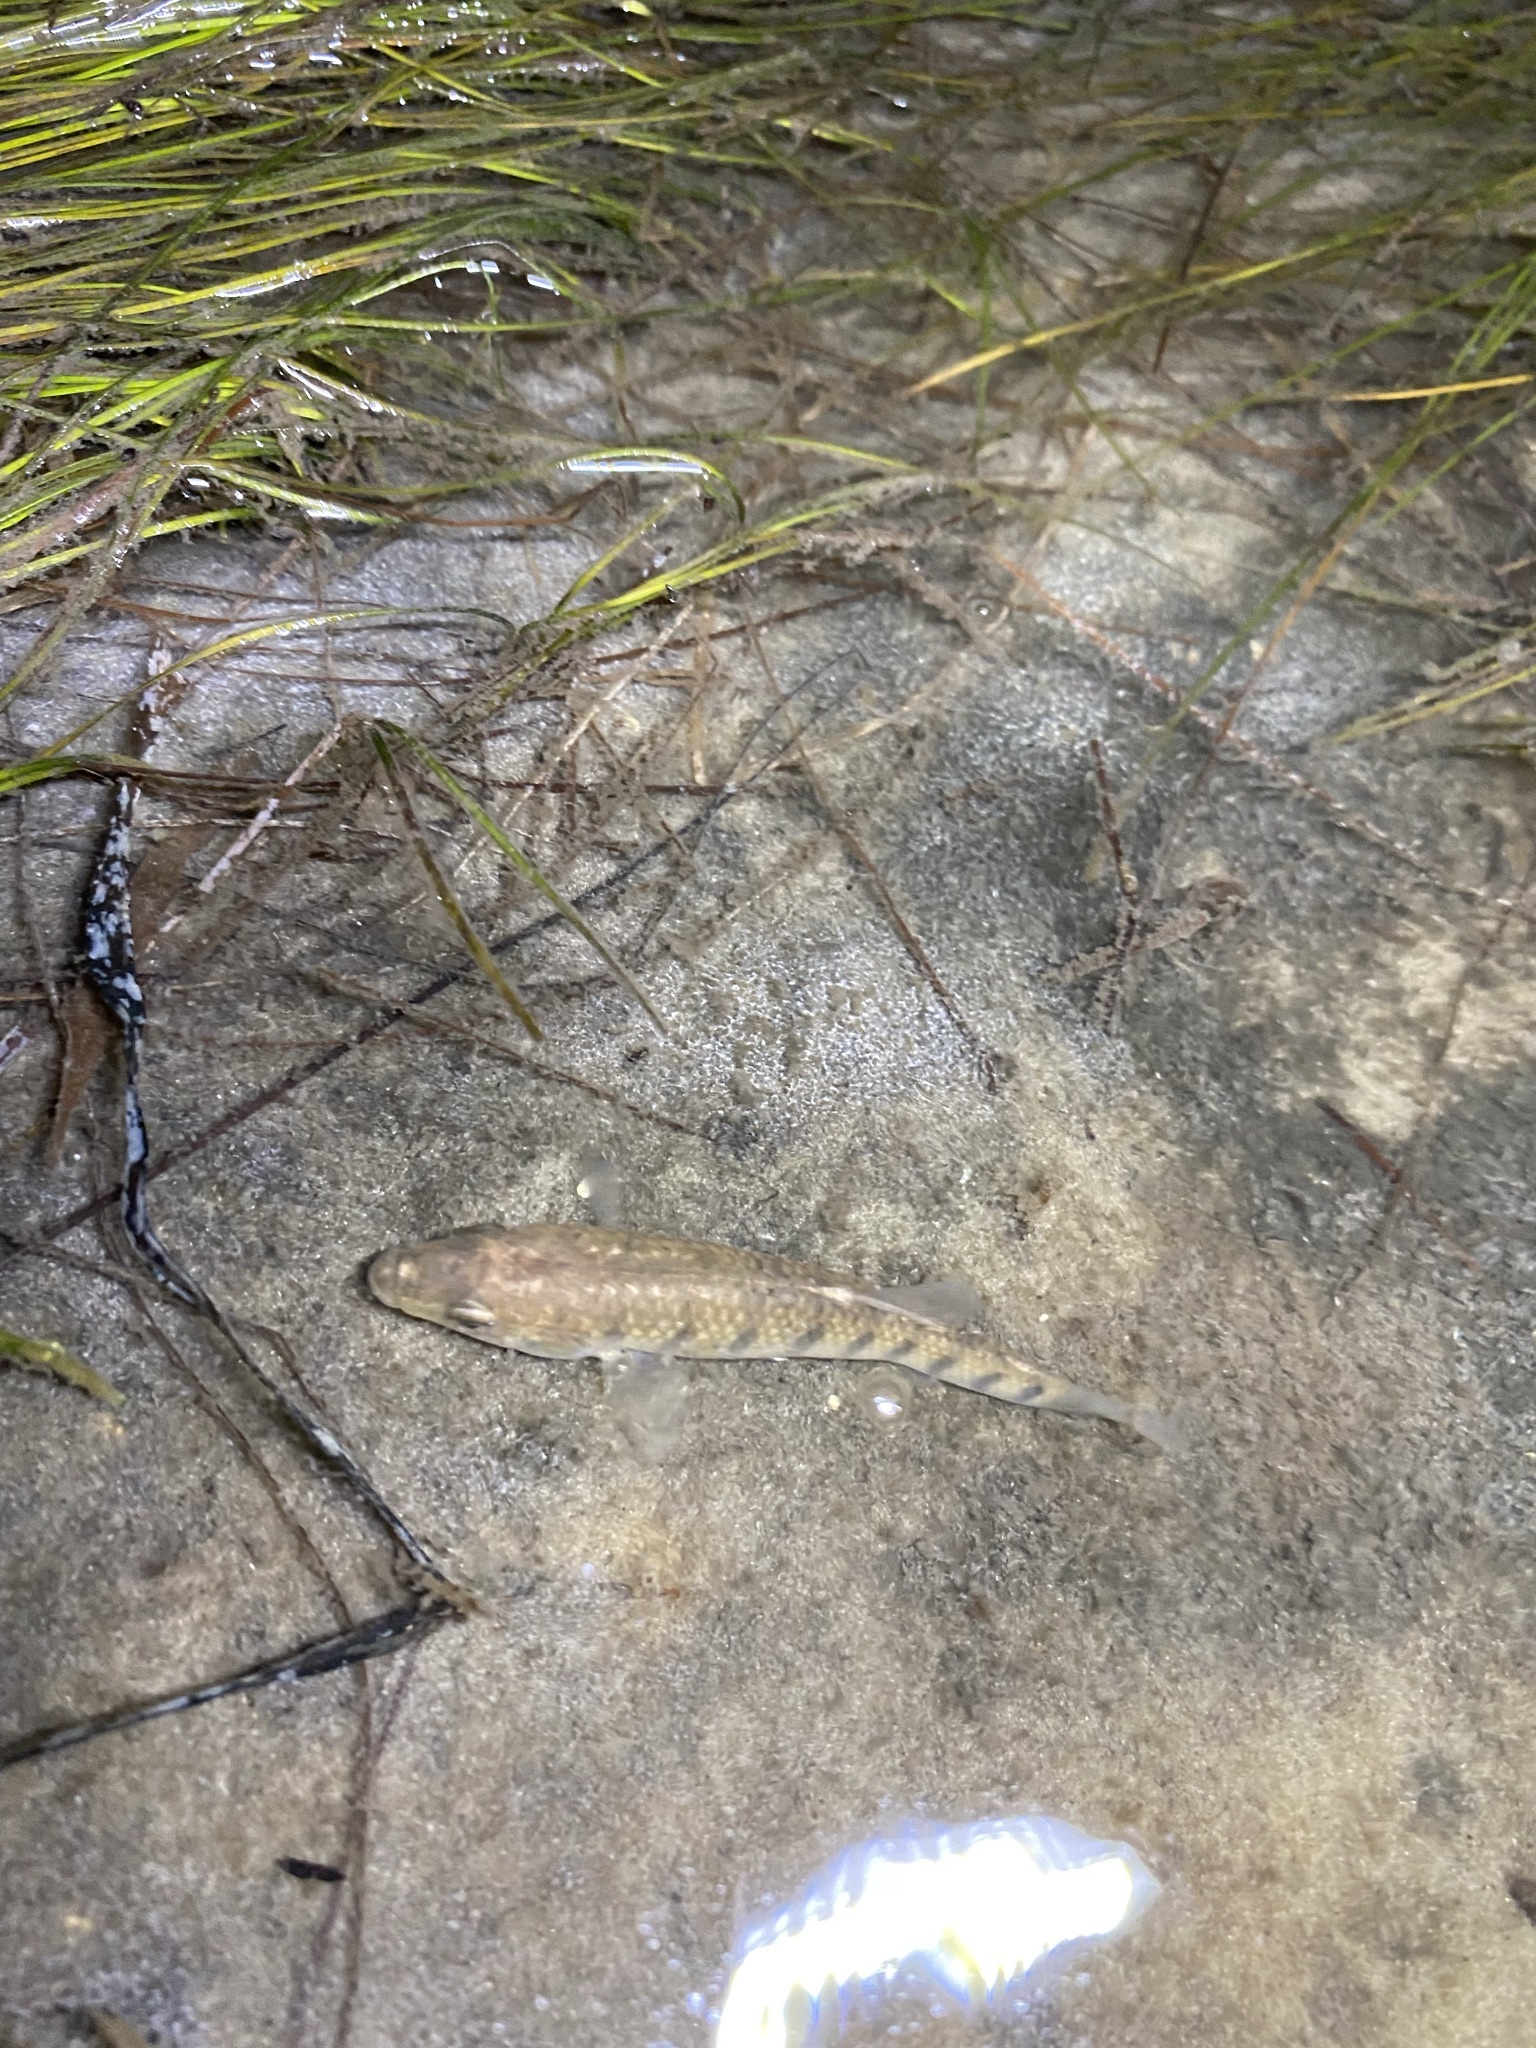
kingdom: Animalia
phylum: Chordata
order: Cyprinodontiformes
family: Fundulidae
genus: Fundulus
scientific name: Fundulus similis
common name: Longnose killifish
